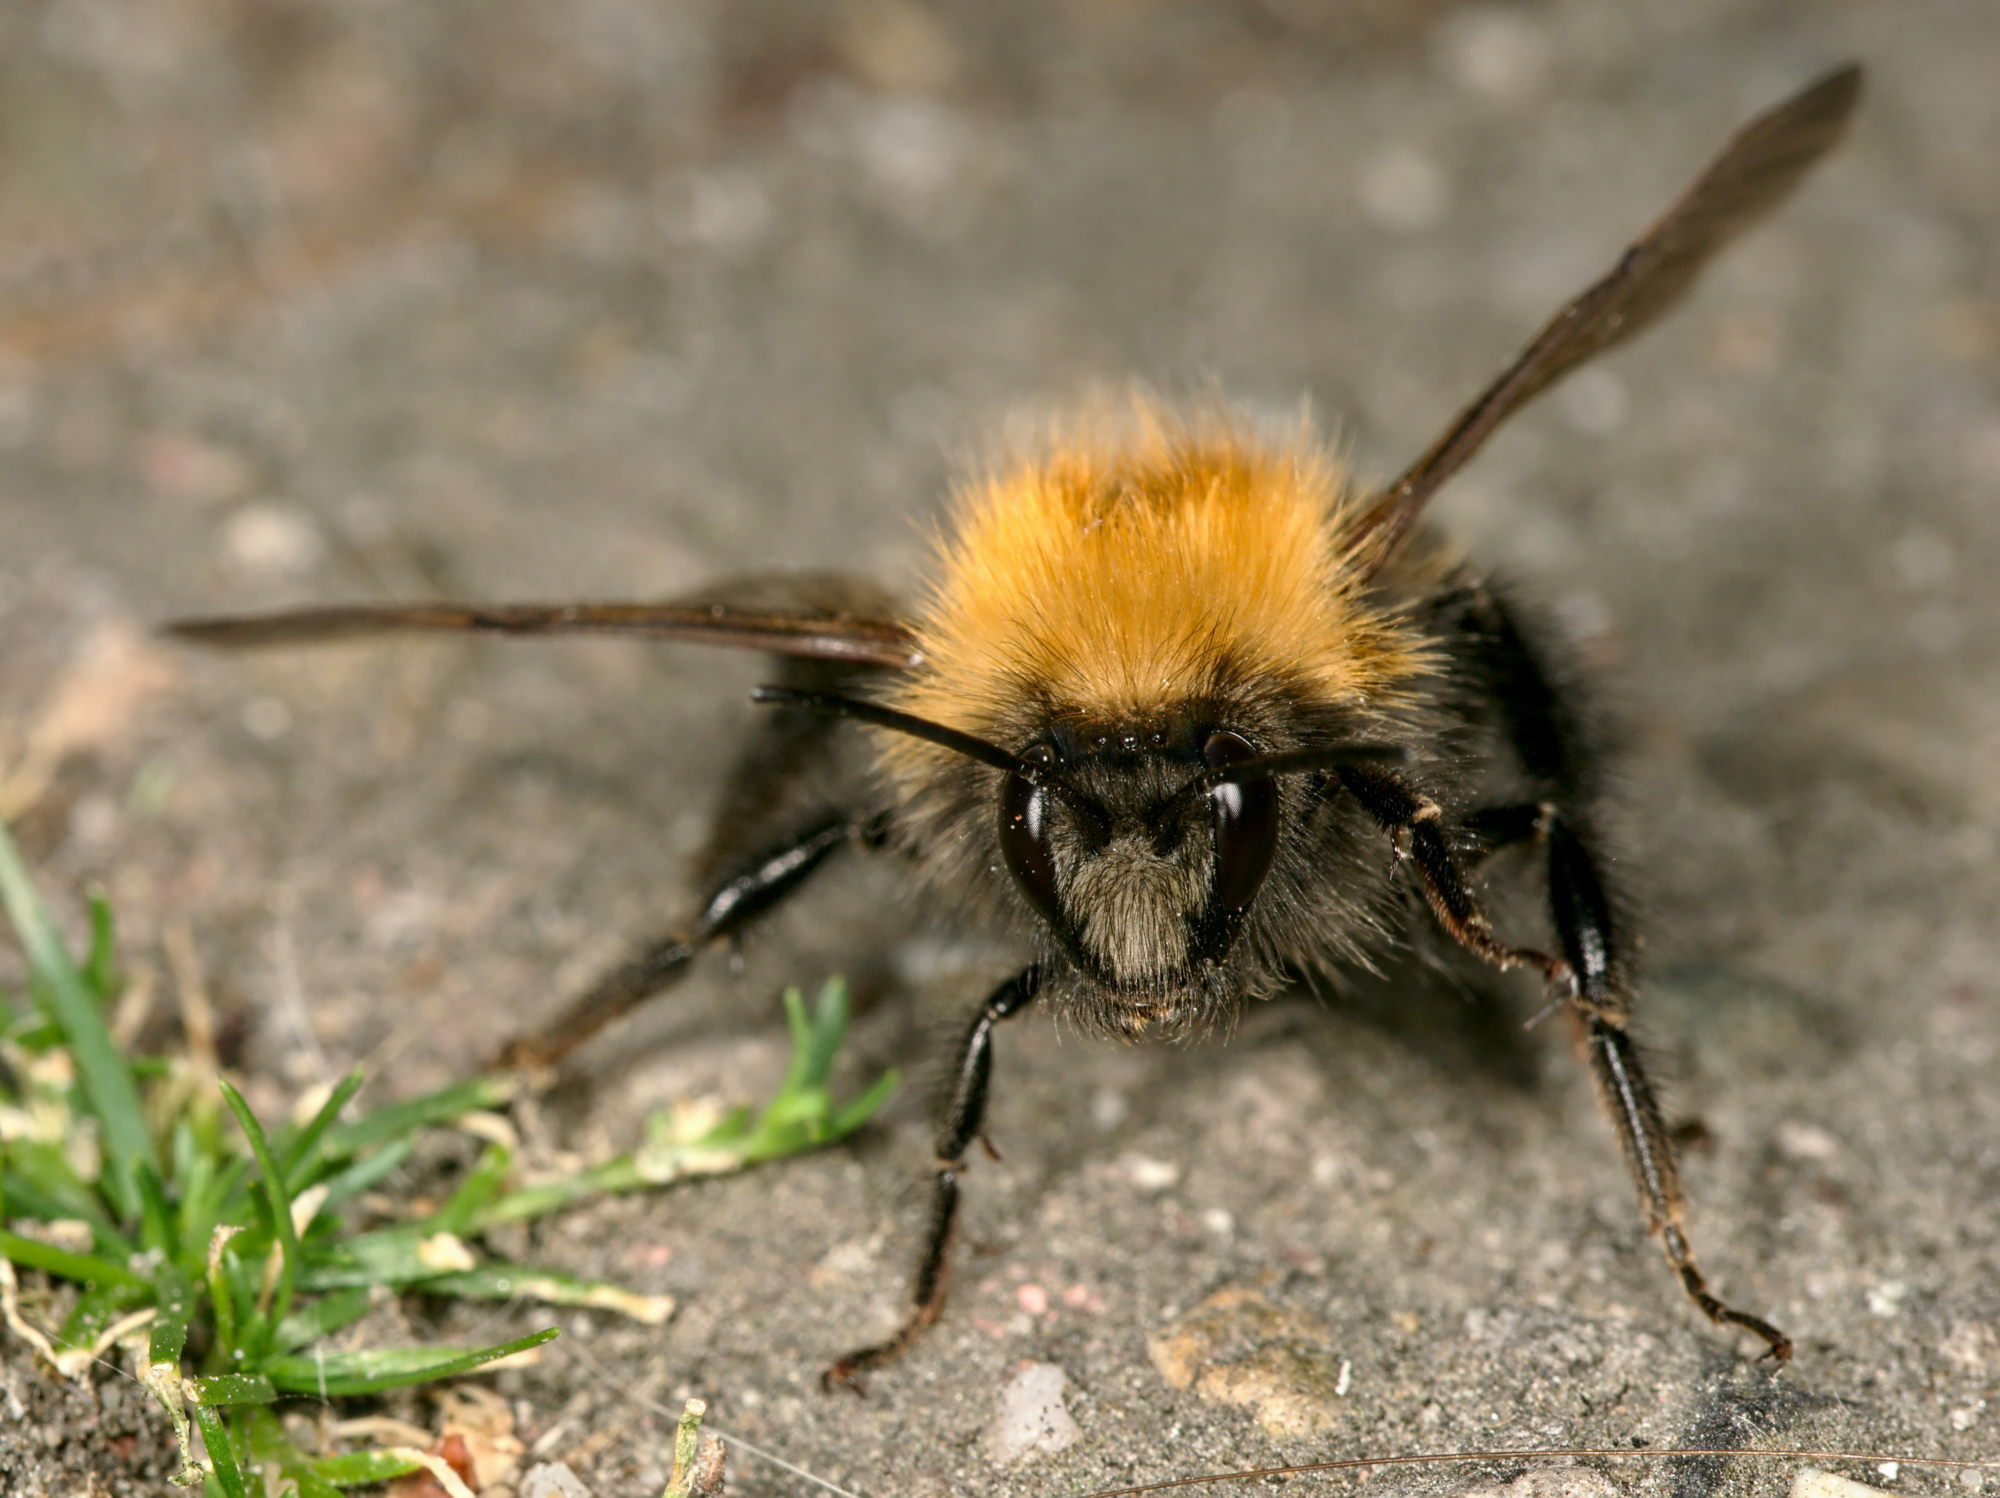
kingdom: Animalia
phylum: Arthropoda
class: Insecta
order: Hymenoptera
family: Apidae
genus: Bombus
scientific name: Bombus hypnorum
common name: New garden bumblebee
